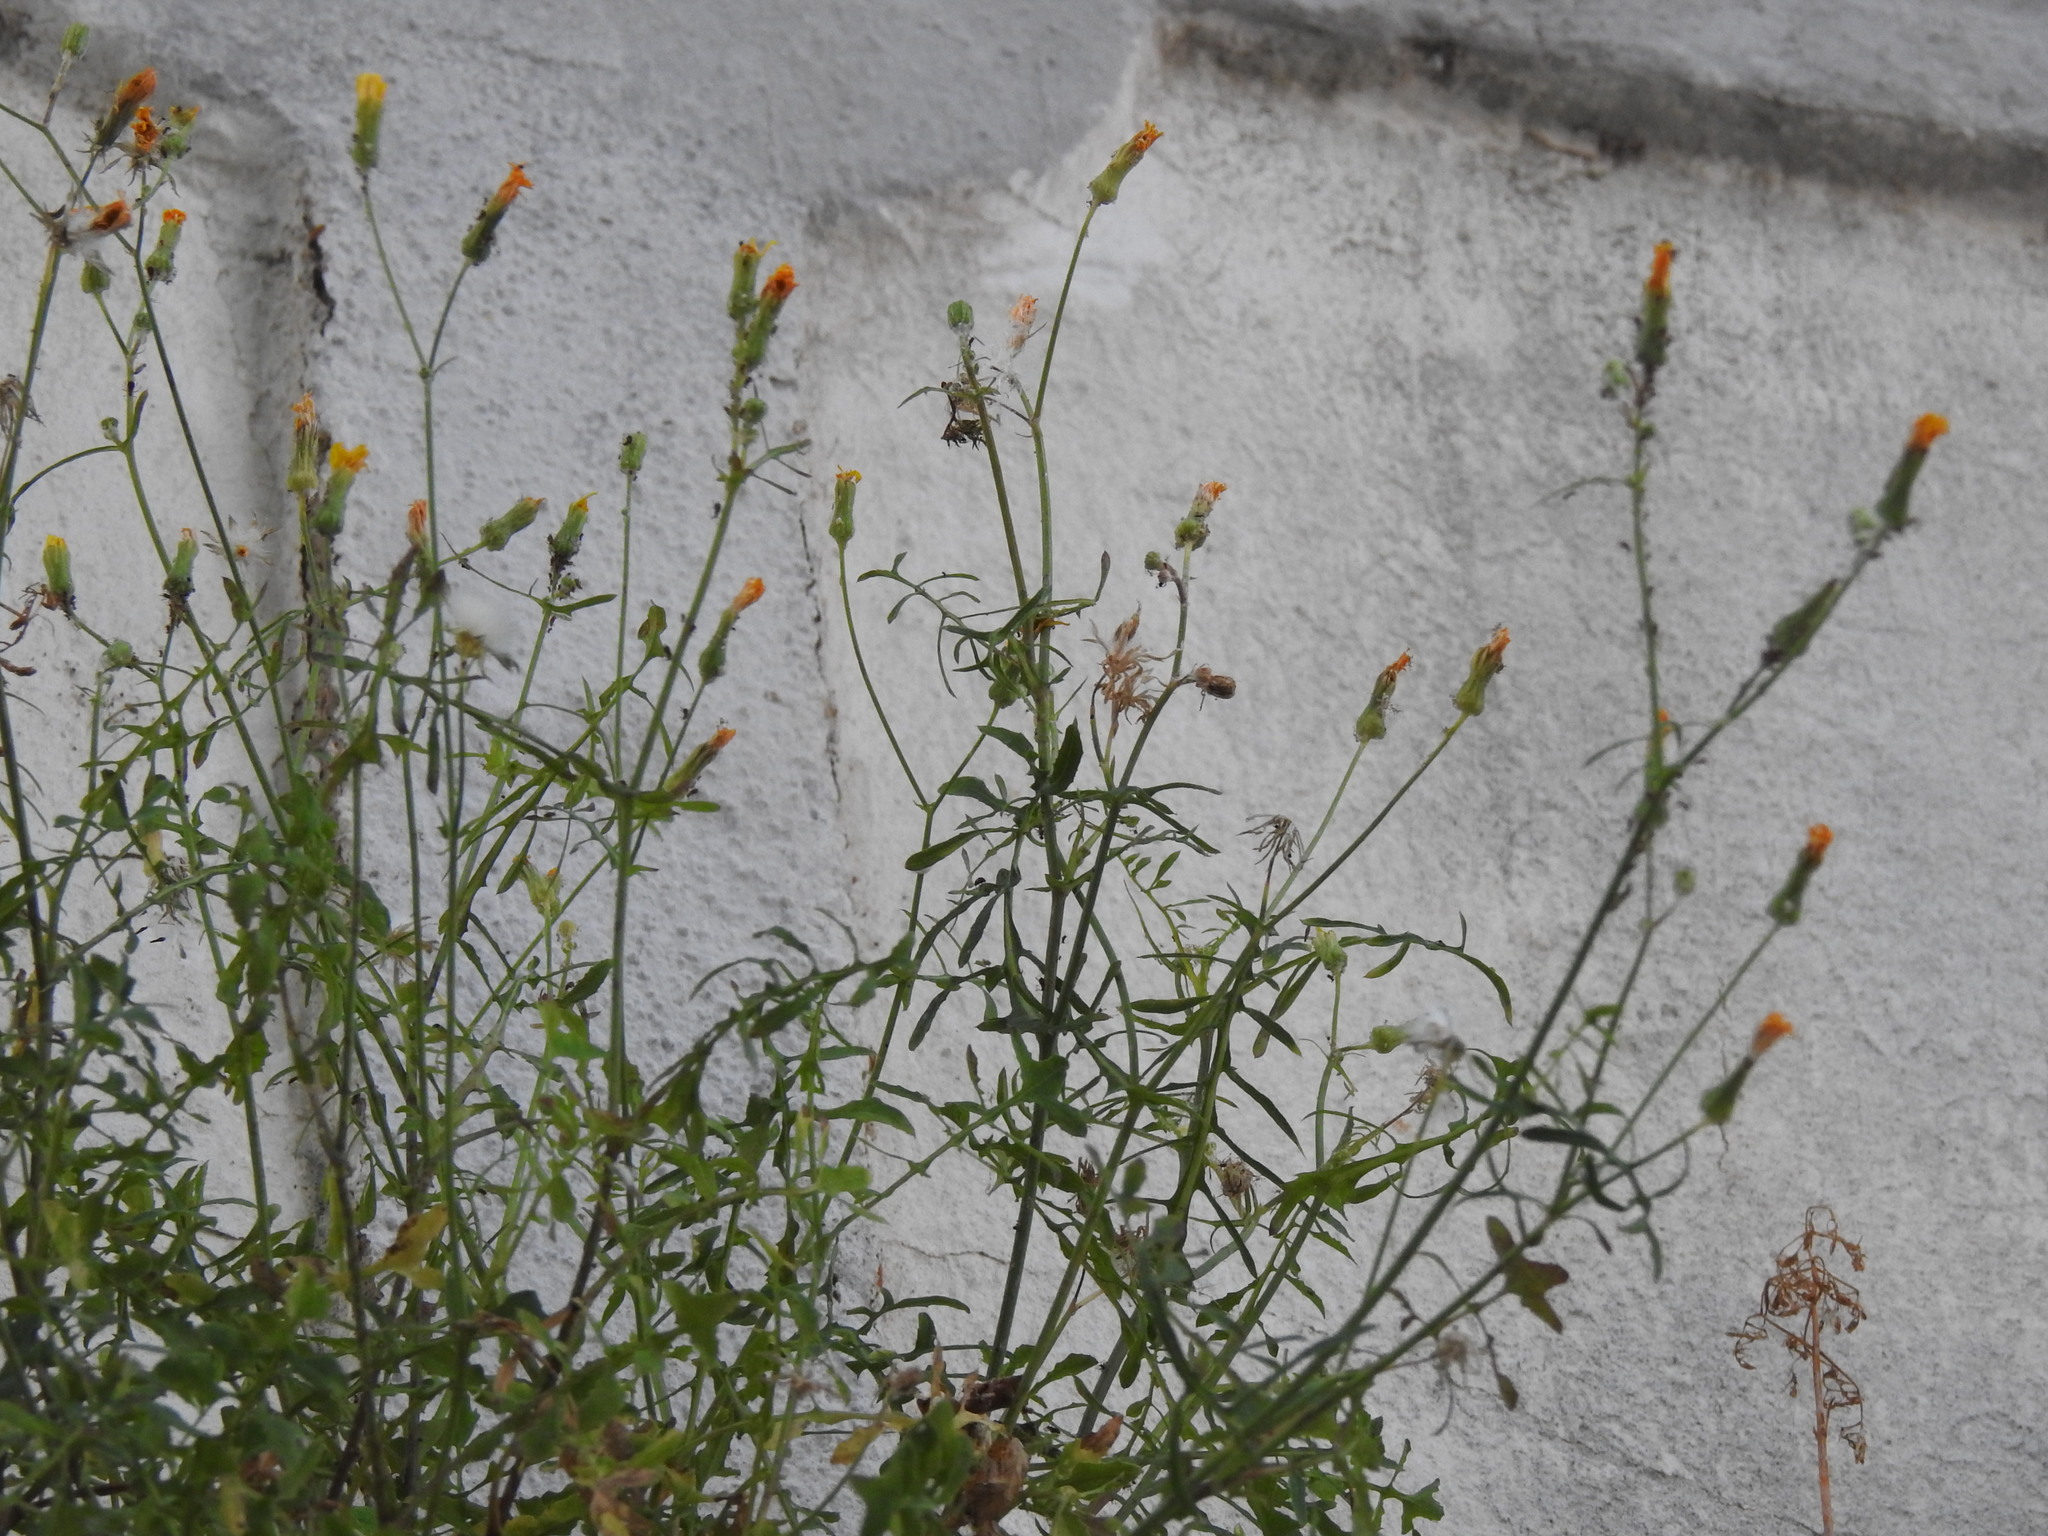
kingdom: Plantae
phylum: Tracheophyta
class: Magnoliopsida
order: Asterales
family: Asteraceae
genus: Sonchus
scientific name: Sonchus tenerrimus
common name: Clammy sowthistle
